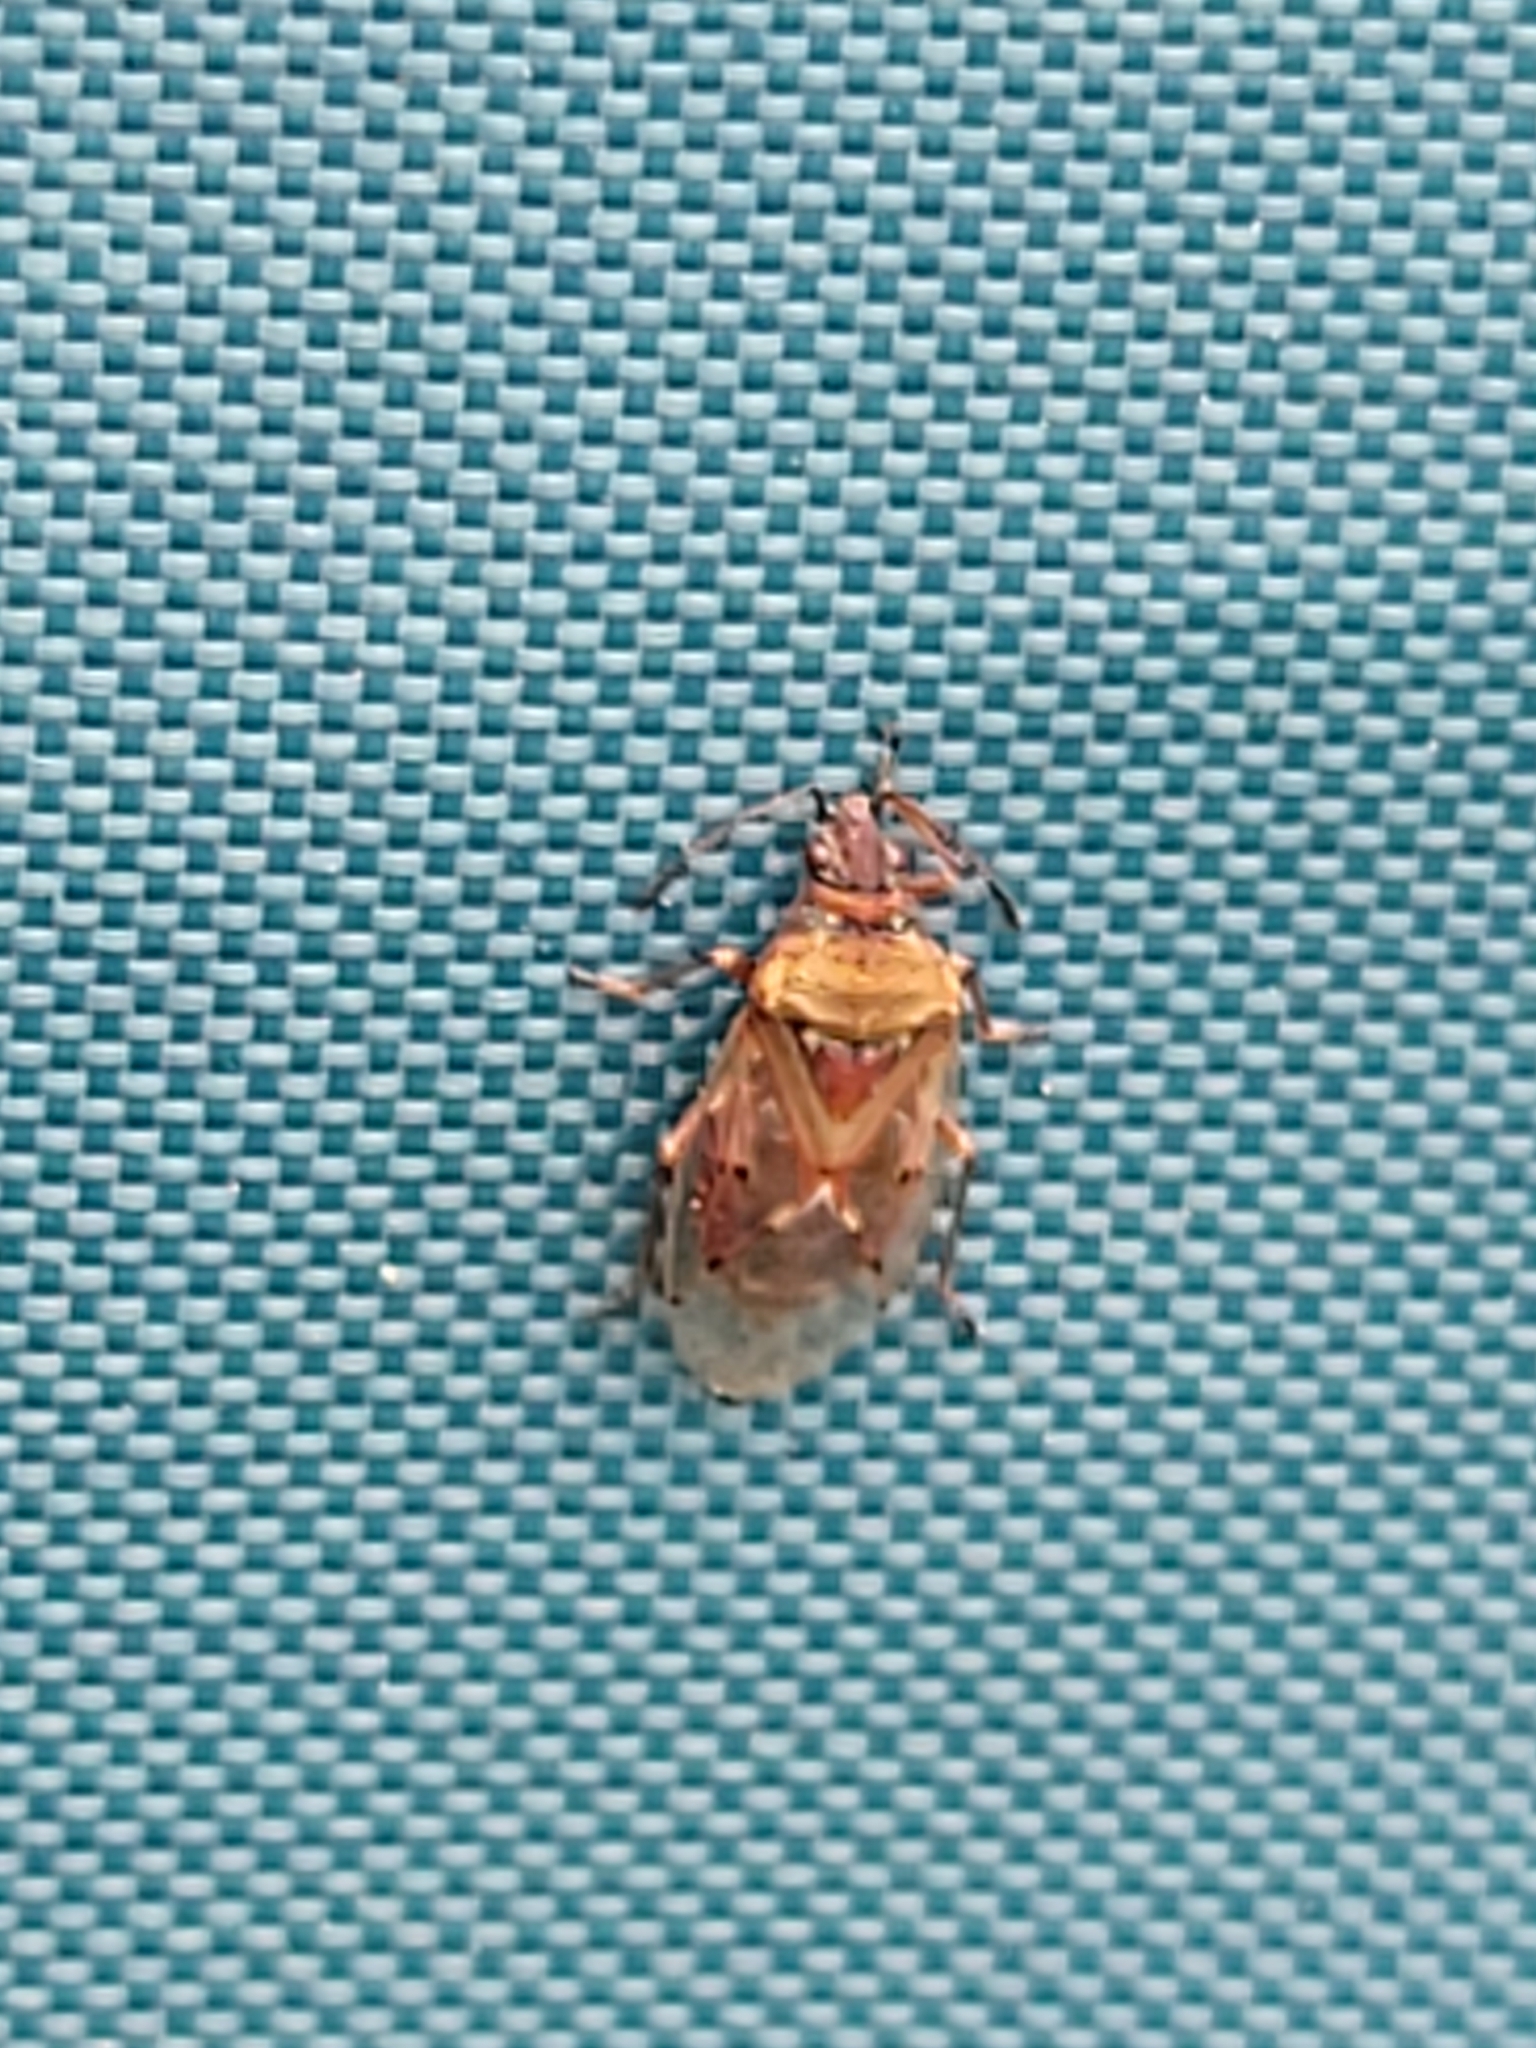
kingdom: Animalia
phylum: Arthropoda
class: Insecta
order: Hemiptera
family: Lygaeidae
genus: Kleidocerys
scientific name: Kleidocerys resedae
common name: Birch catkin bug
